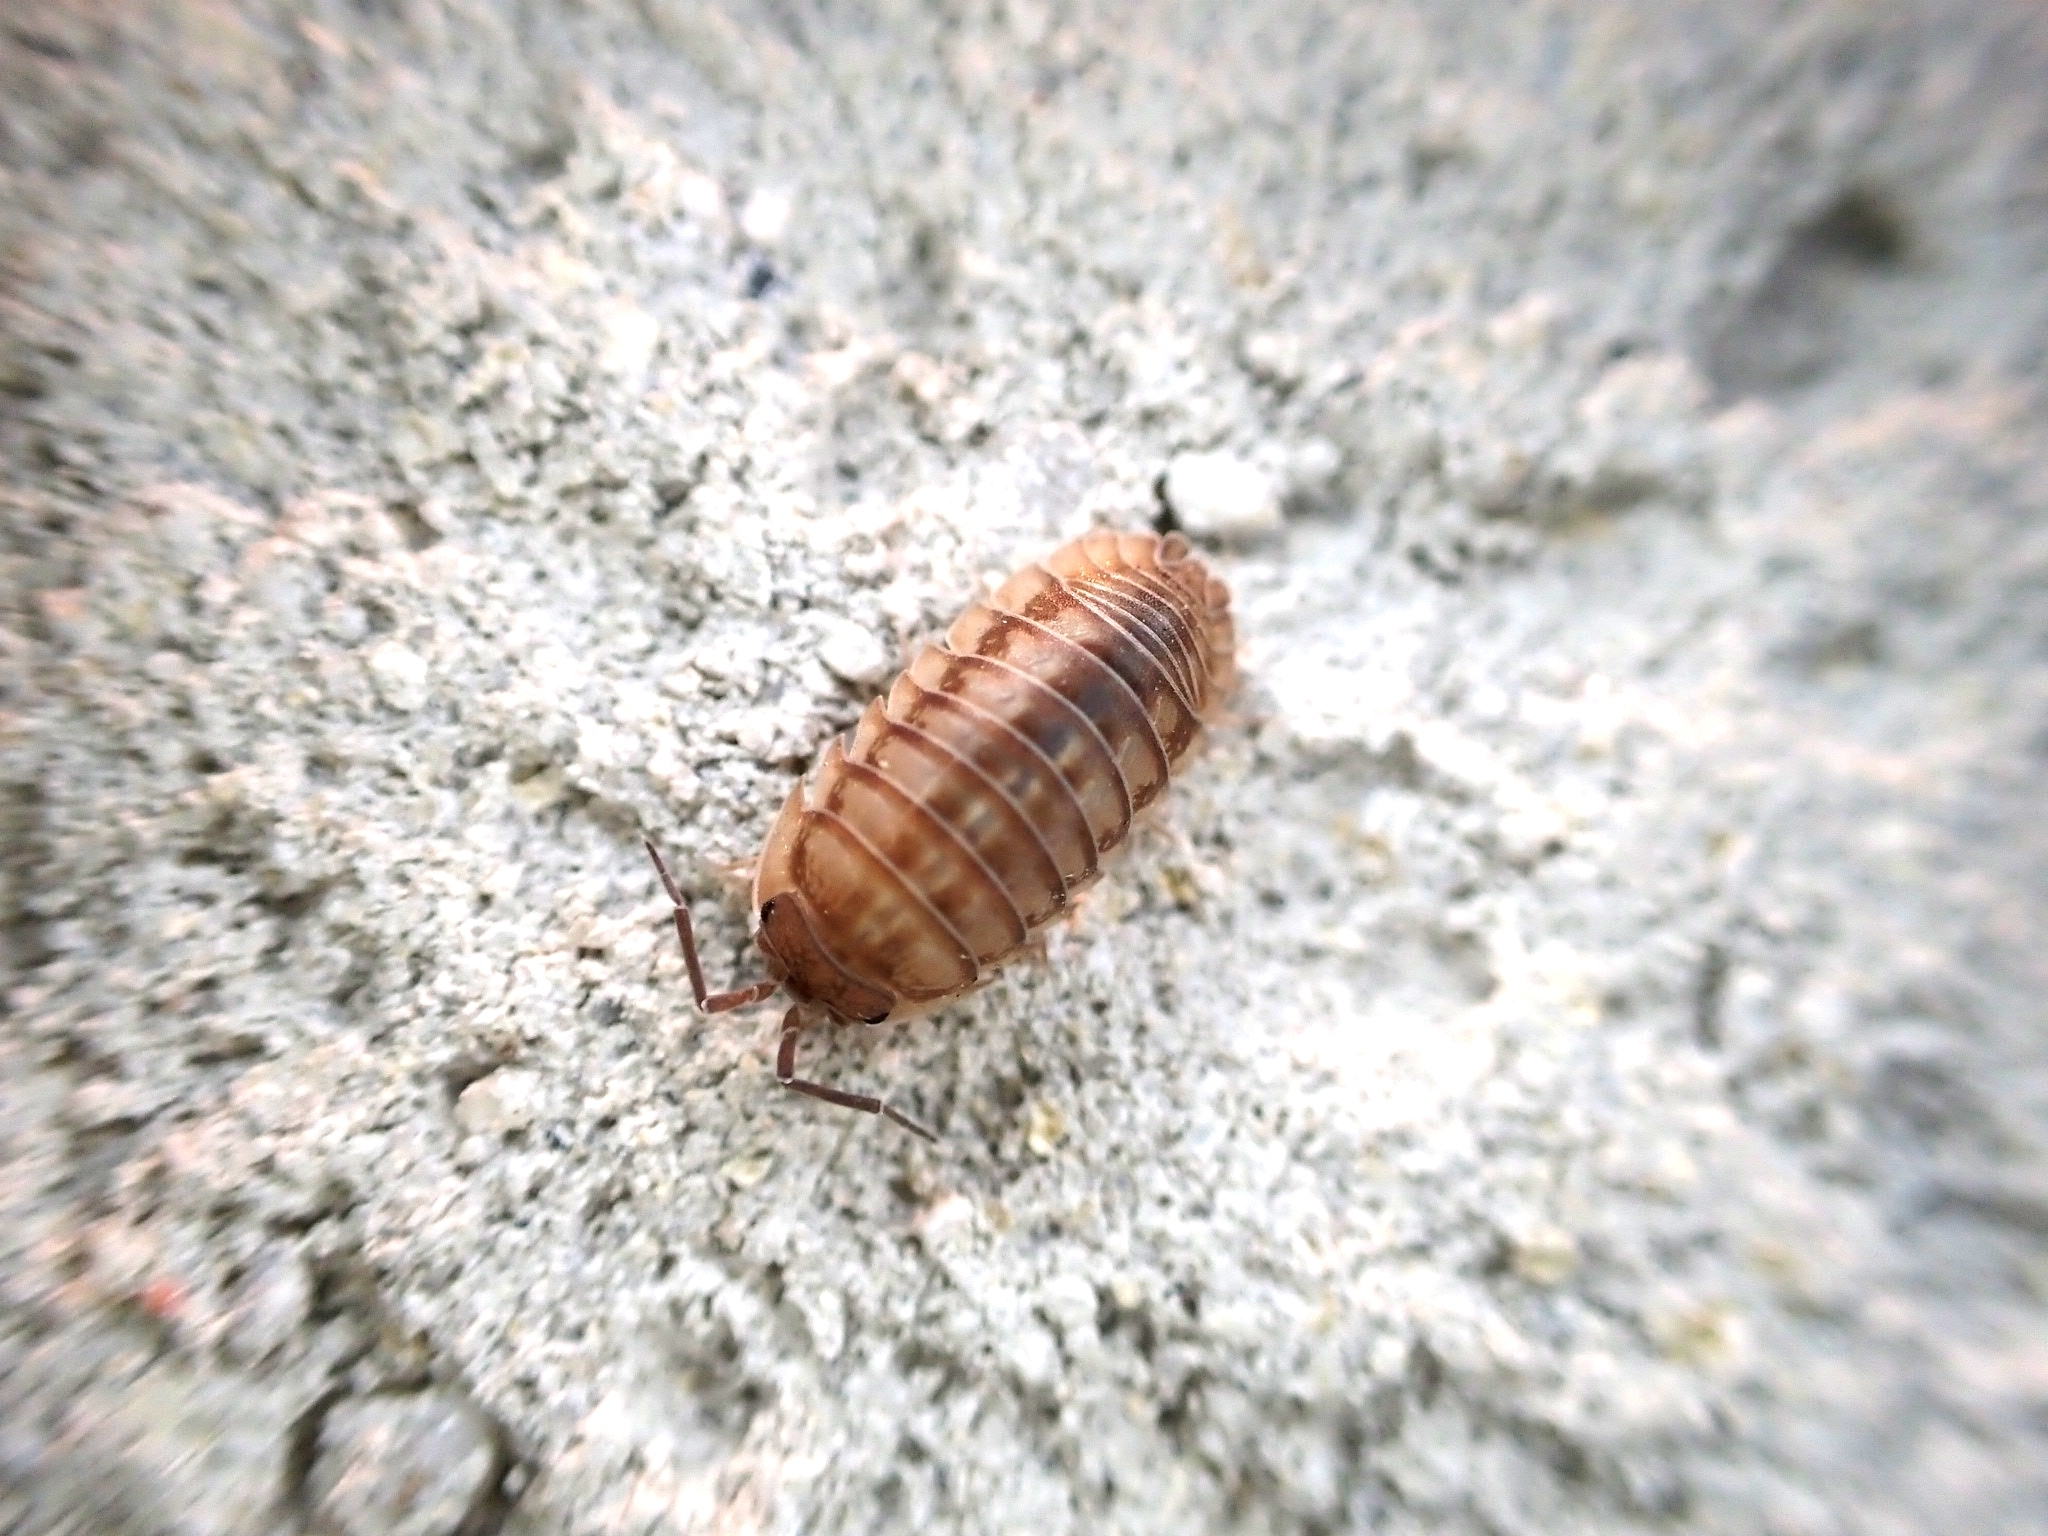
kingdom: Animalia
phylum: Arthropoda
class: Malacostraca
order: Isopoda
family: Armadillidiidae
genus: Armadillidium
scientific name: Armadillidium nasatum
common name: Isopod
